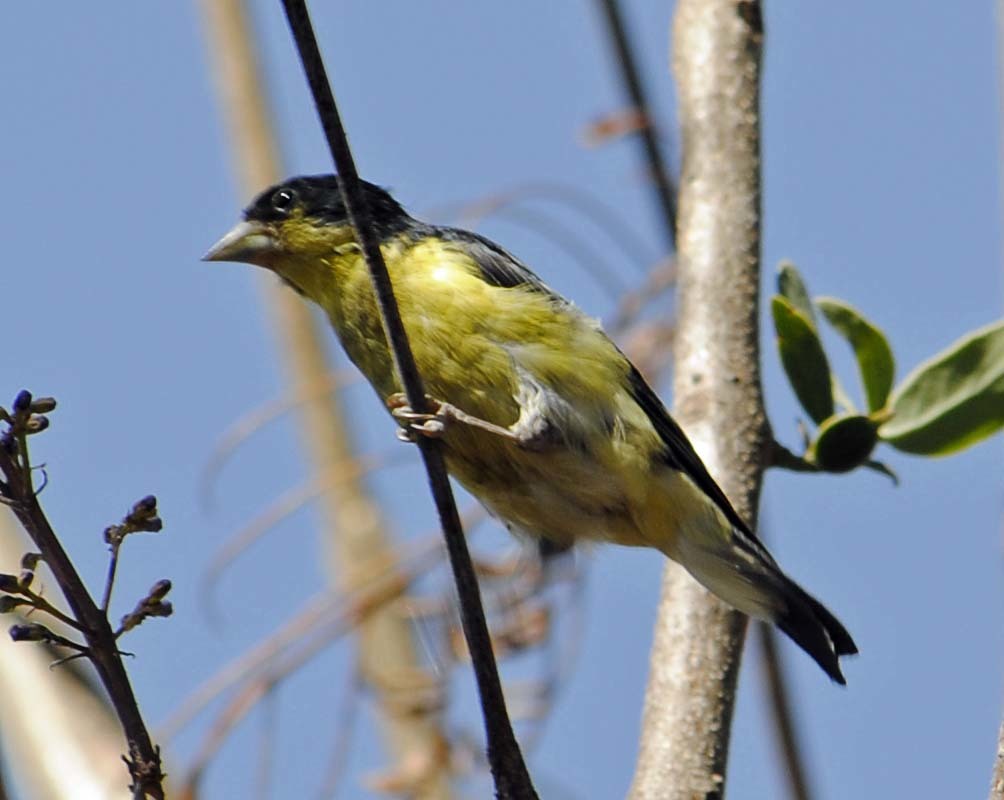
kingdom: Animalia
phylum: Chordata
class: Aves
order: Passeriformes
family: Fringillidae
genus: Spinus
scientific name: Spinus psaltria
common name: Lesser goldfinch
